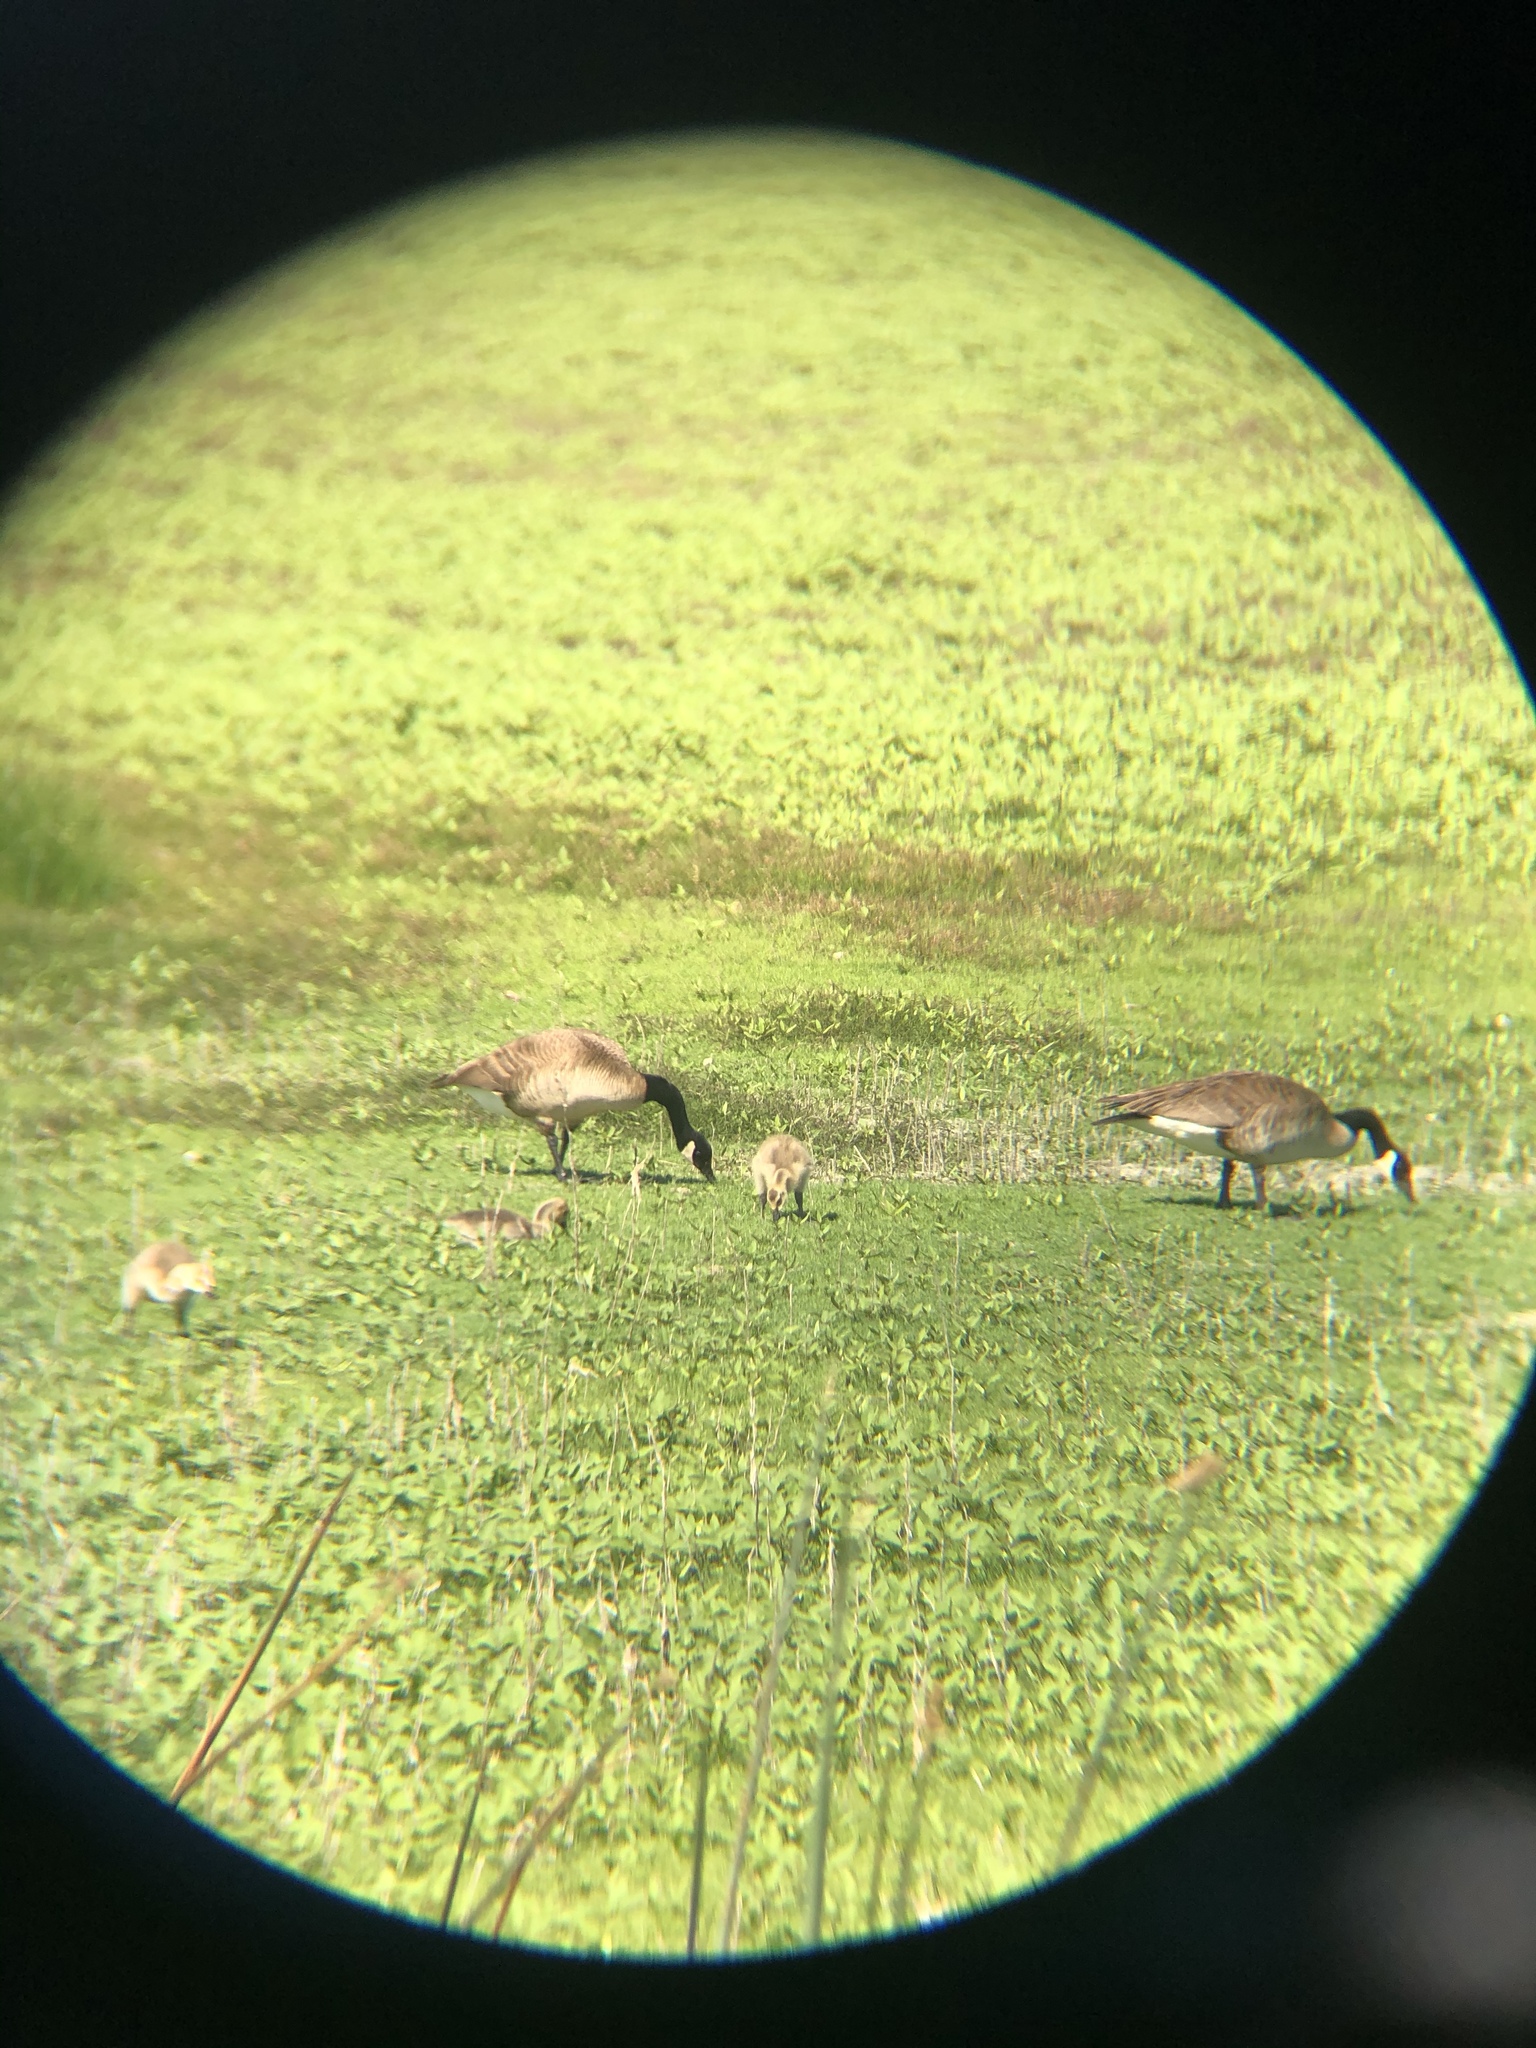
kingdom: Animalia
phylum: Chordata
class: Aves
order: Anseriformes
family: Anatidae
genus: Branta
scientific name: Branta canadensis
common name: Canada goose
